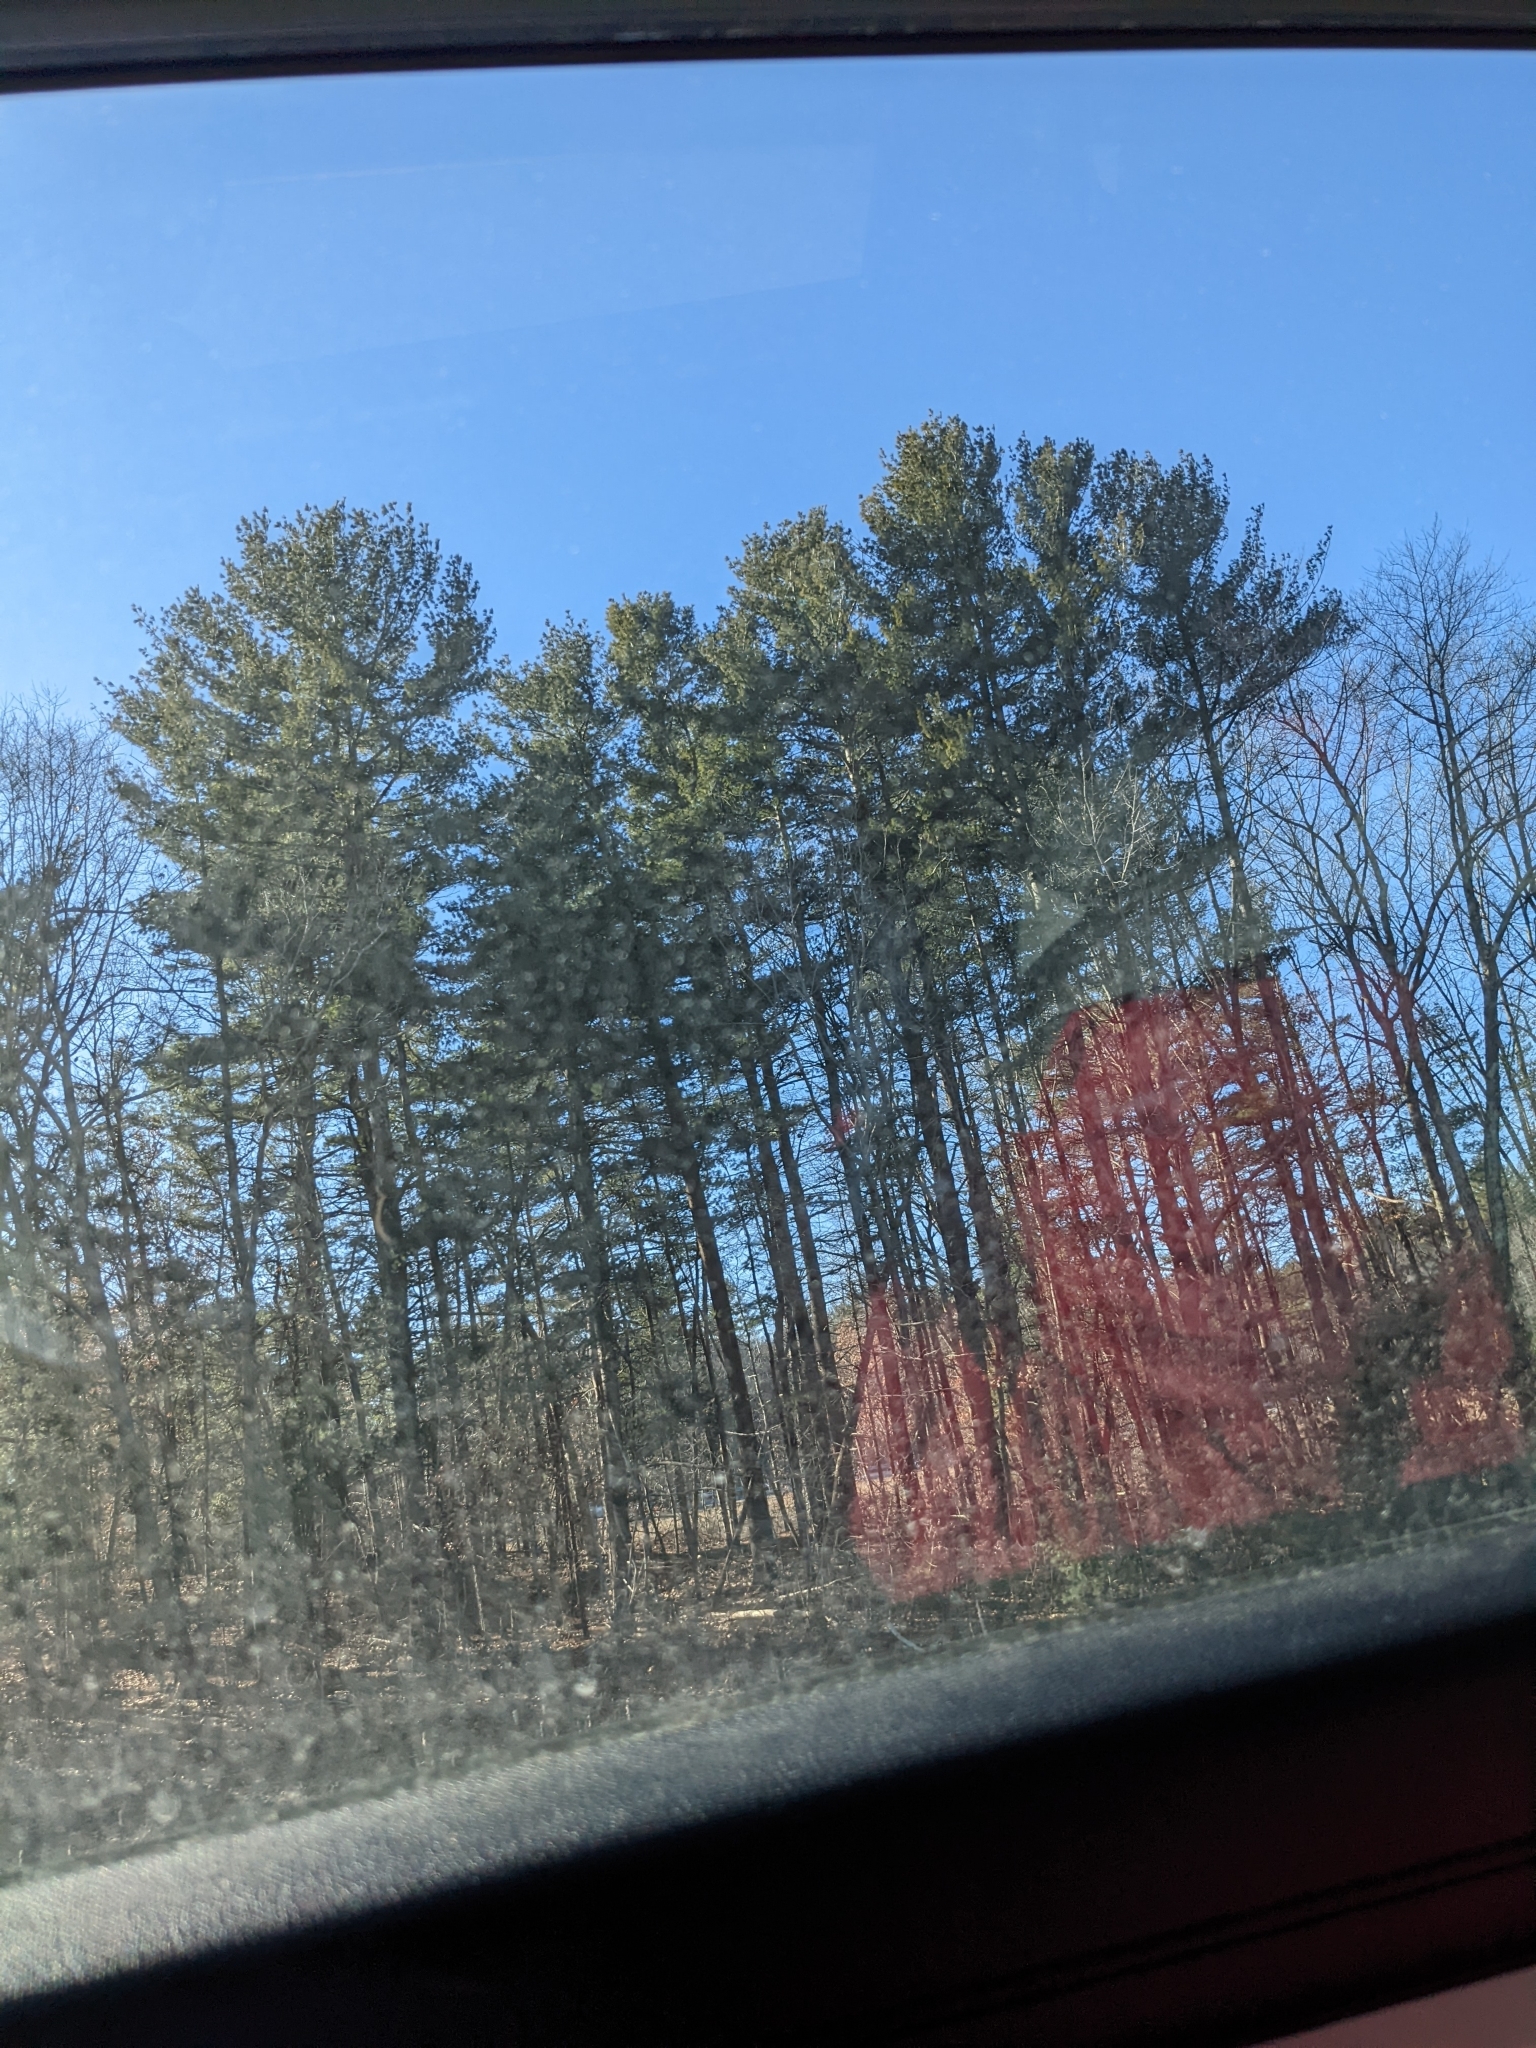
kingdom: Plantae
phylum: Tracheophyta
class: Pinopsida
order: Pinales
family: Pinaceae
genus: Pinus
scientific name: Pinus strobus
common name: Weymouth pine
